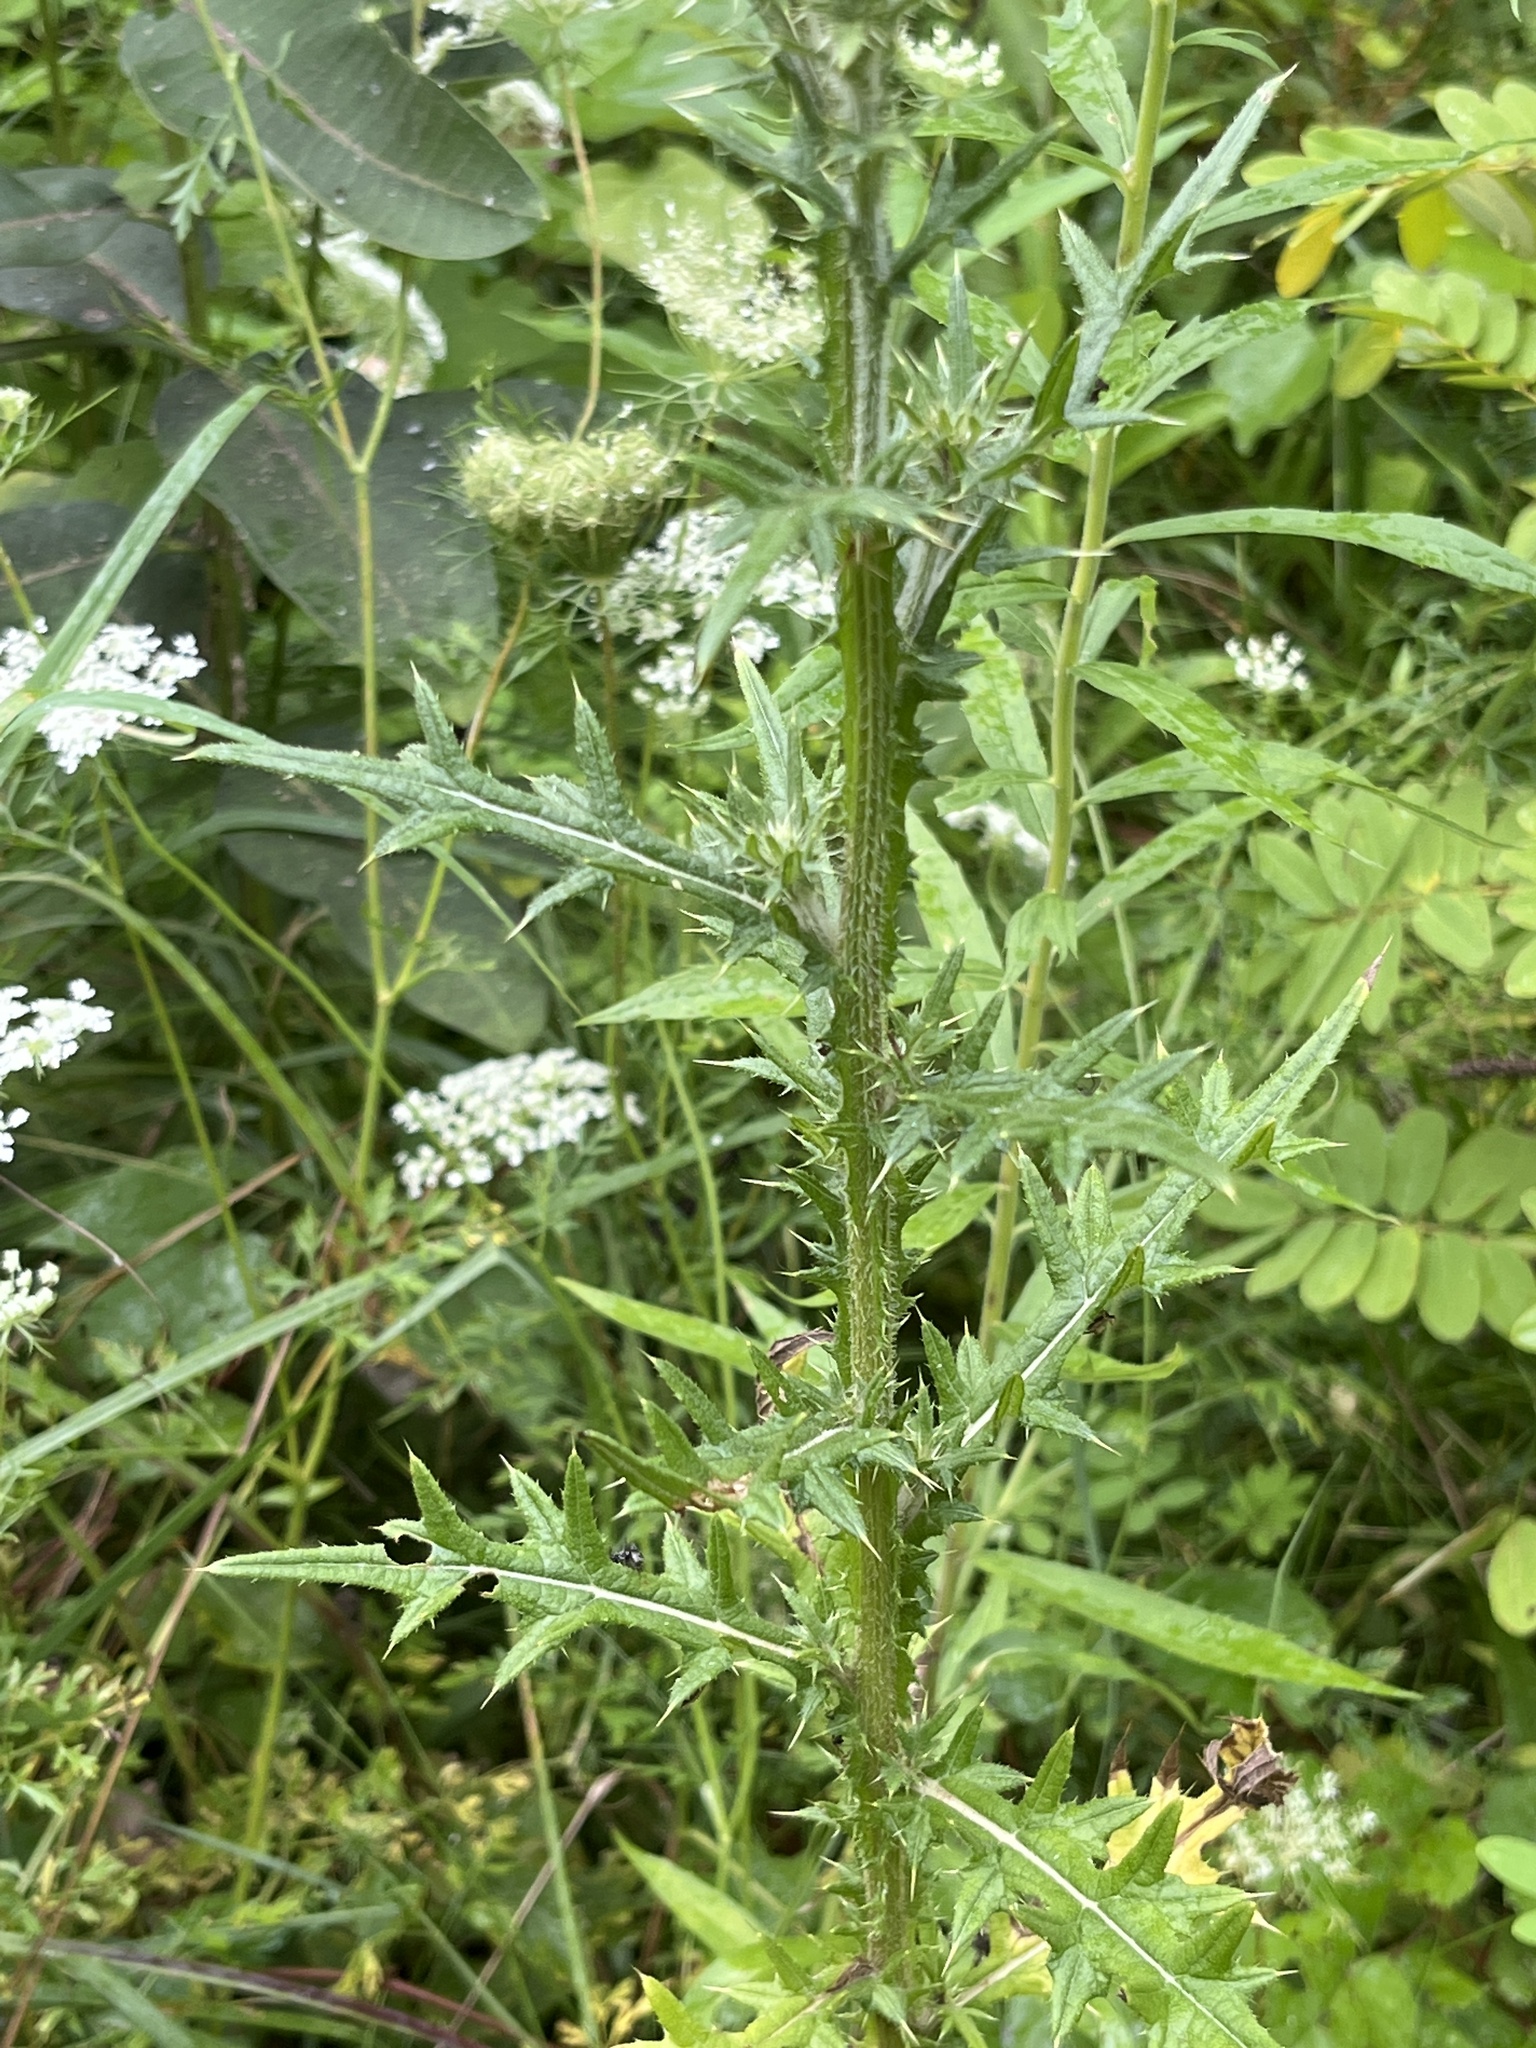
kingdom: Plantae
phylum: Tracheophyta
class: Magnoliopsida
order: Asterales
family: Asteraceae
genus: Cirsium
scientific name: Cirsium vulgare
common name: Bull thistle
